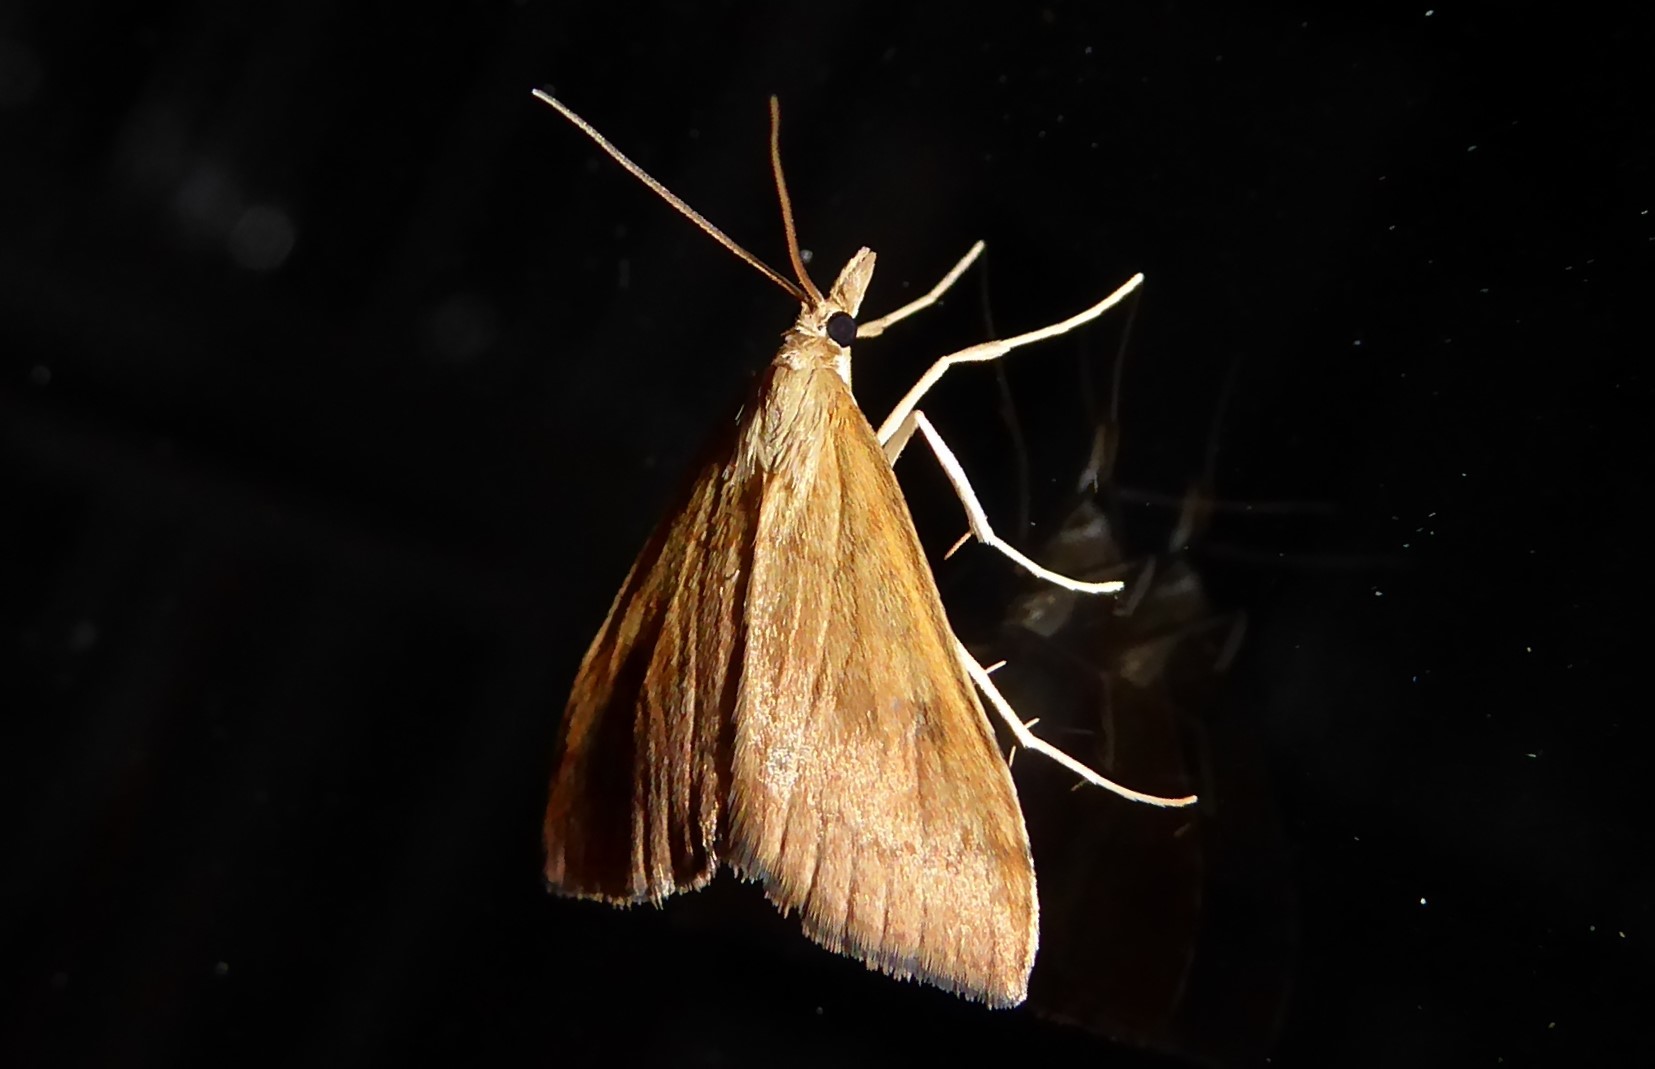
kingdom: Animalia
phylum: Arthropoda
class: Insecta
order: Lepidoptera
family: Crambidae
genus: Udea
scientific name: Udea Mnesictena flavidalis
